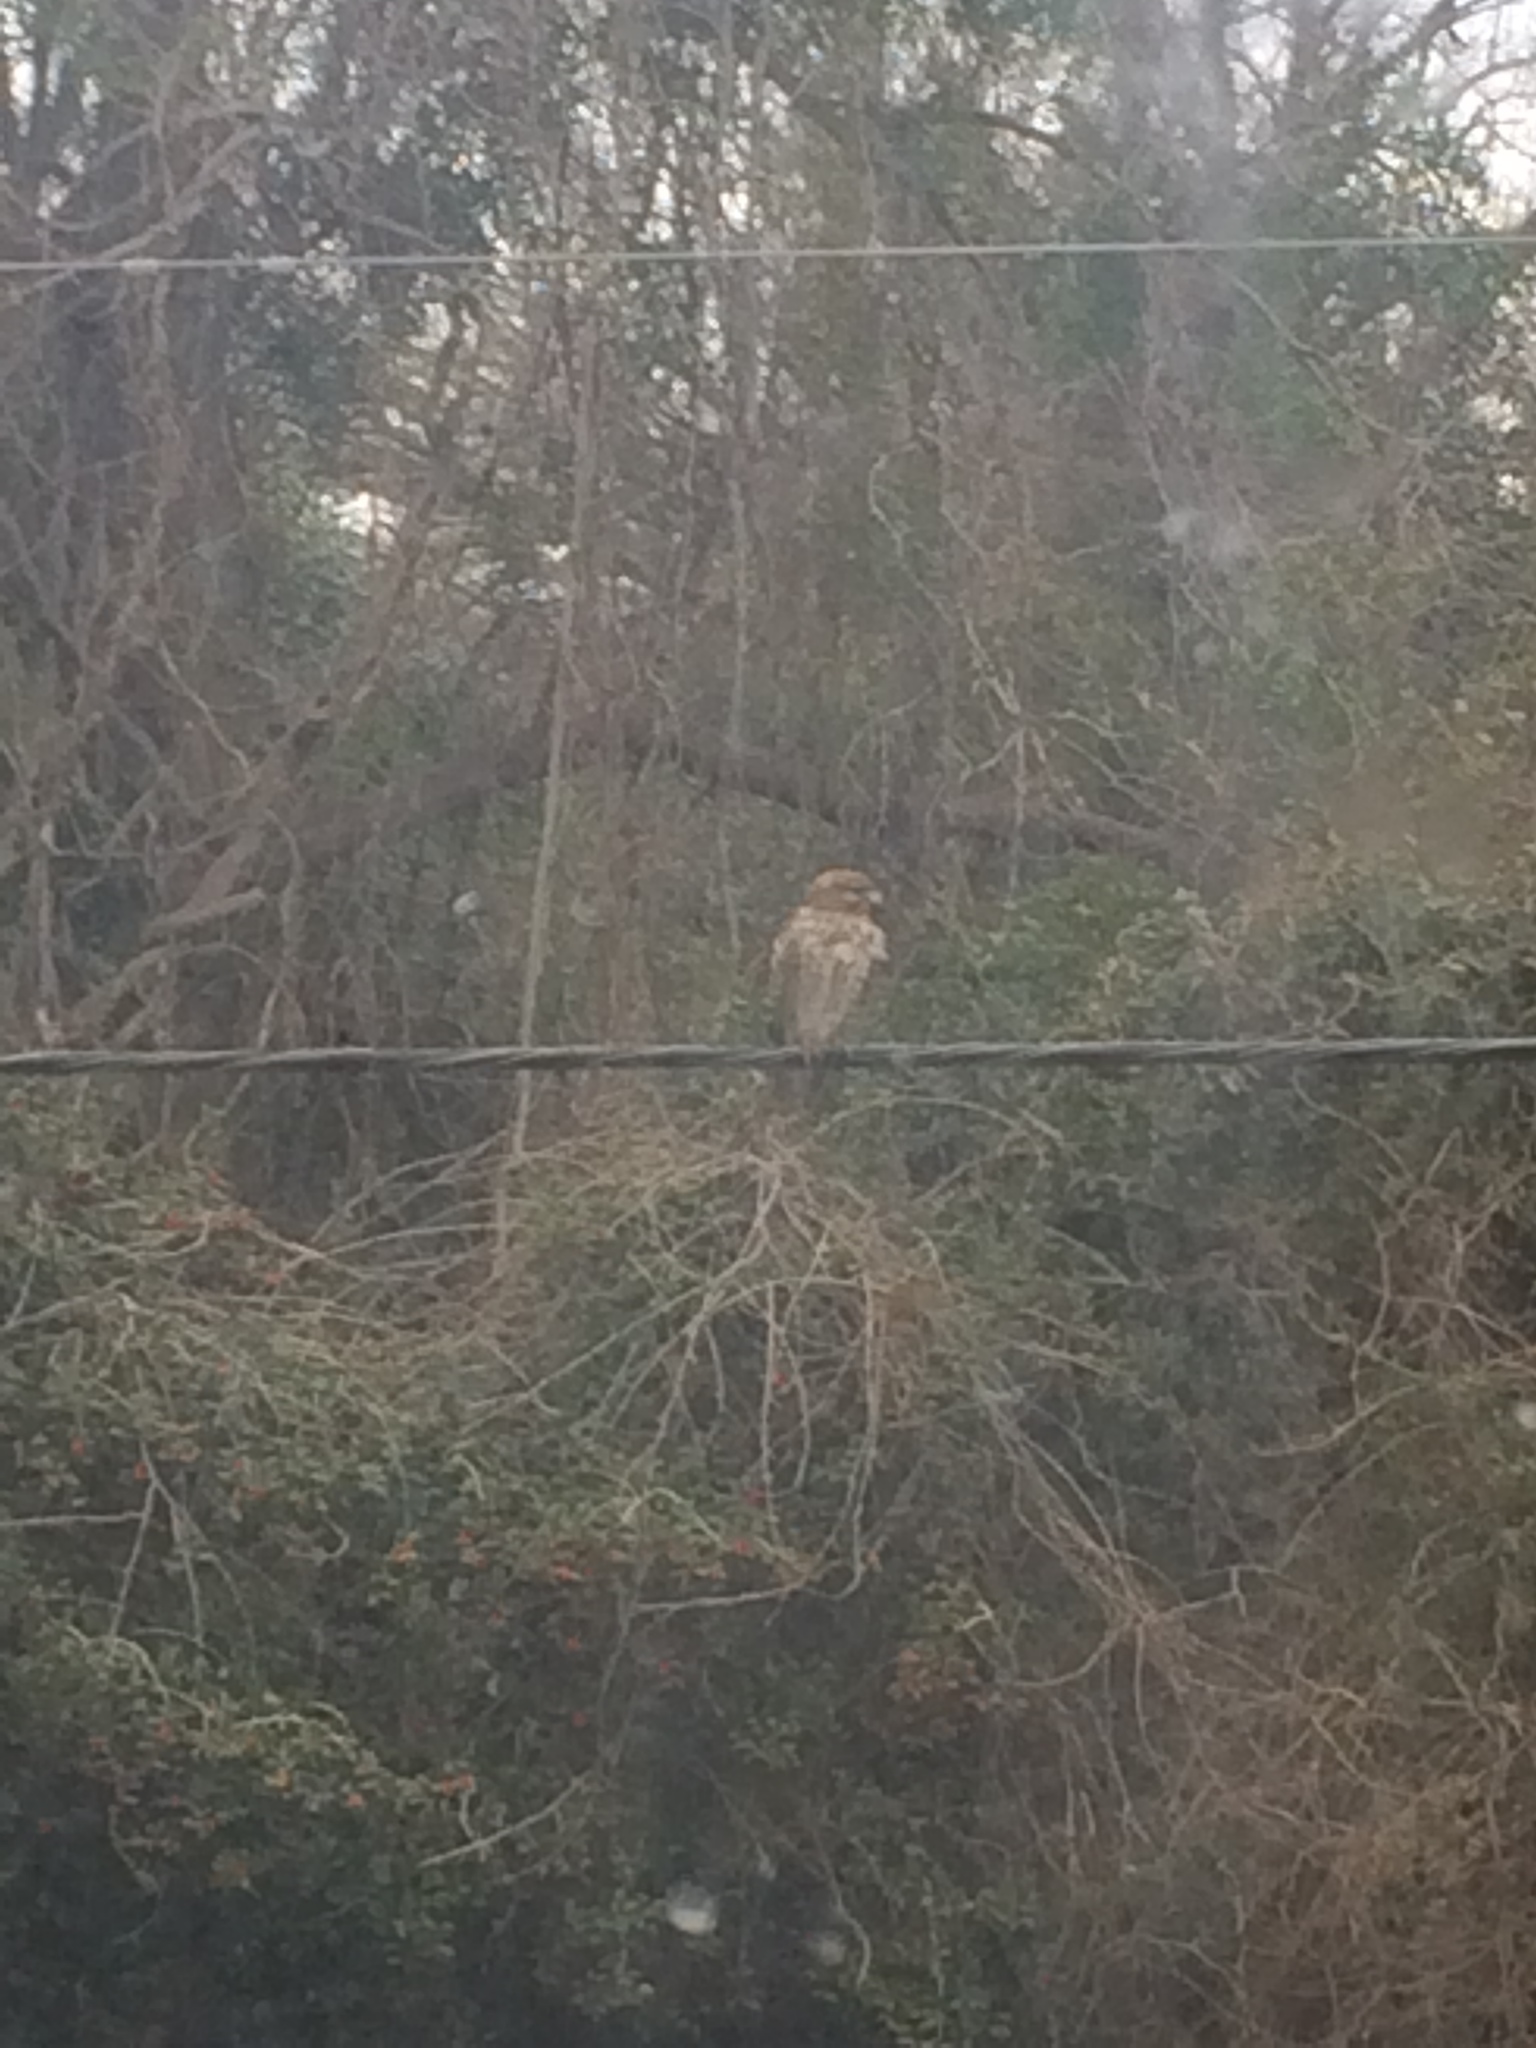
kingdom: Animalia
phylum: Chordata
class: Aves
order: Accipitriformes
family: Accipitridae
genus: Buteo
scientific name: Buteo lineatus
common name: Red-shouldered hawk
